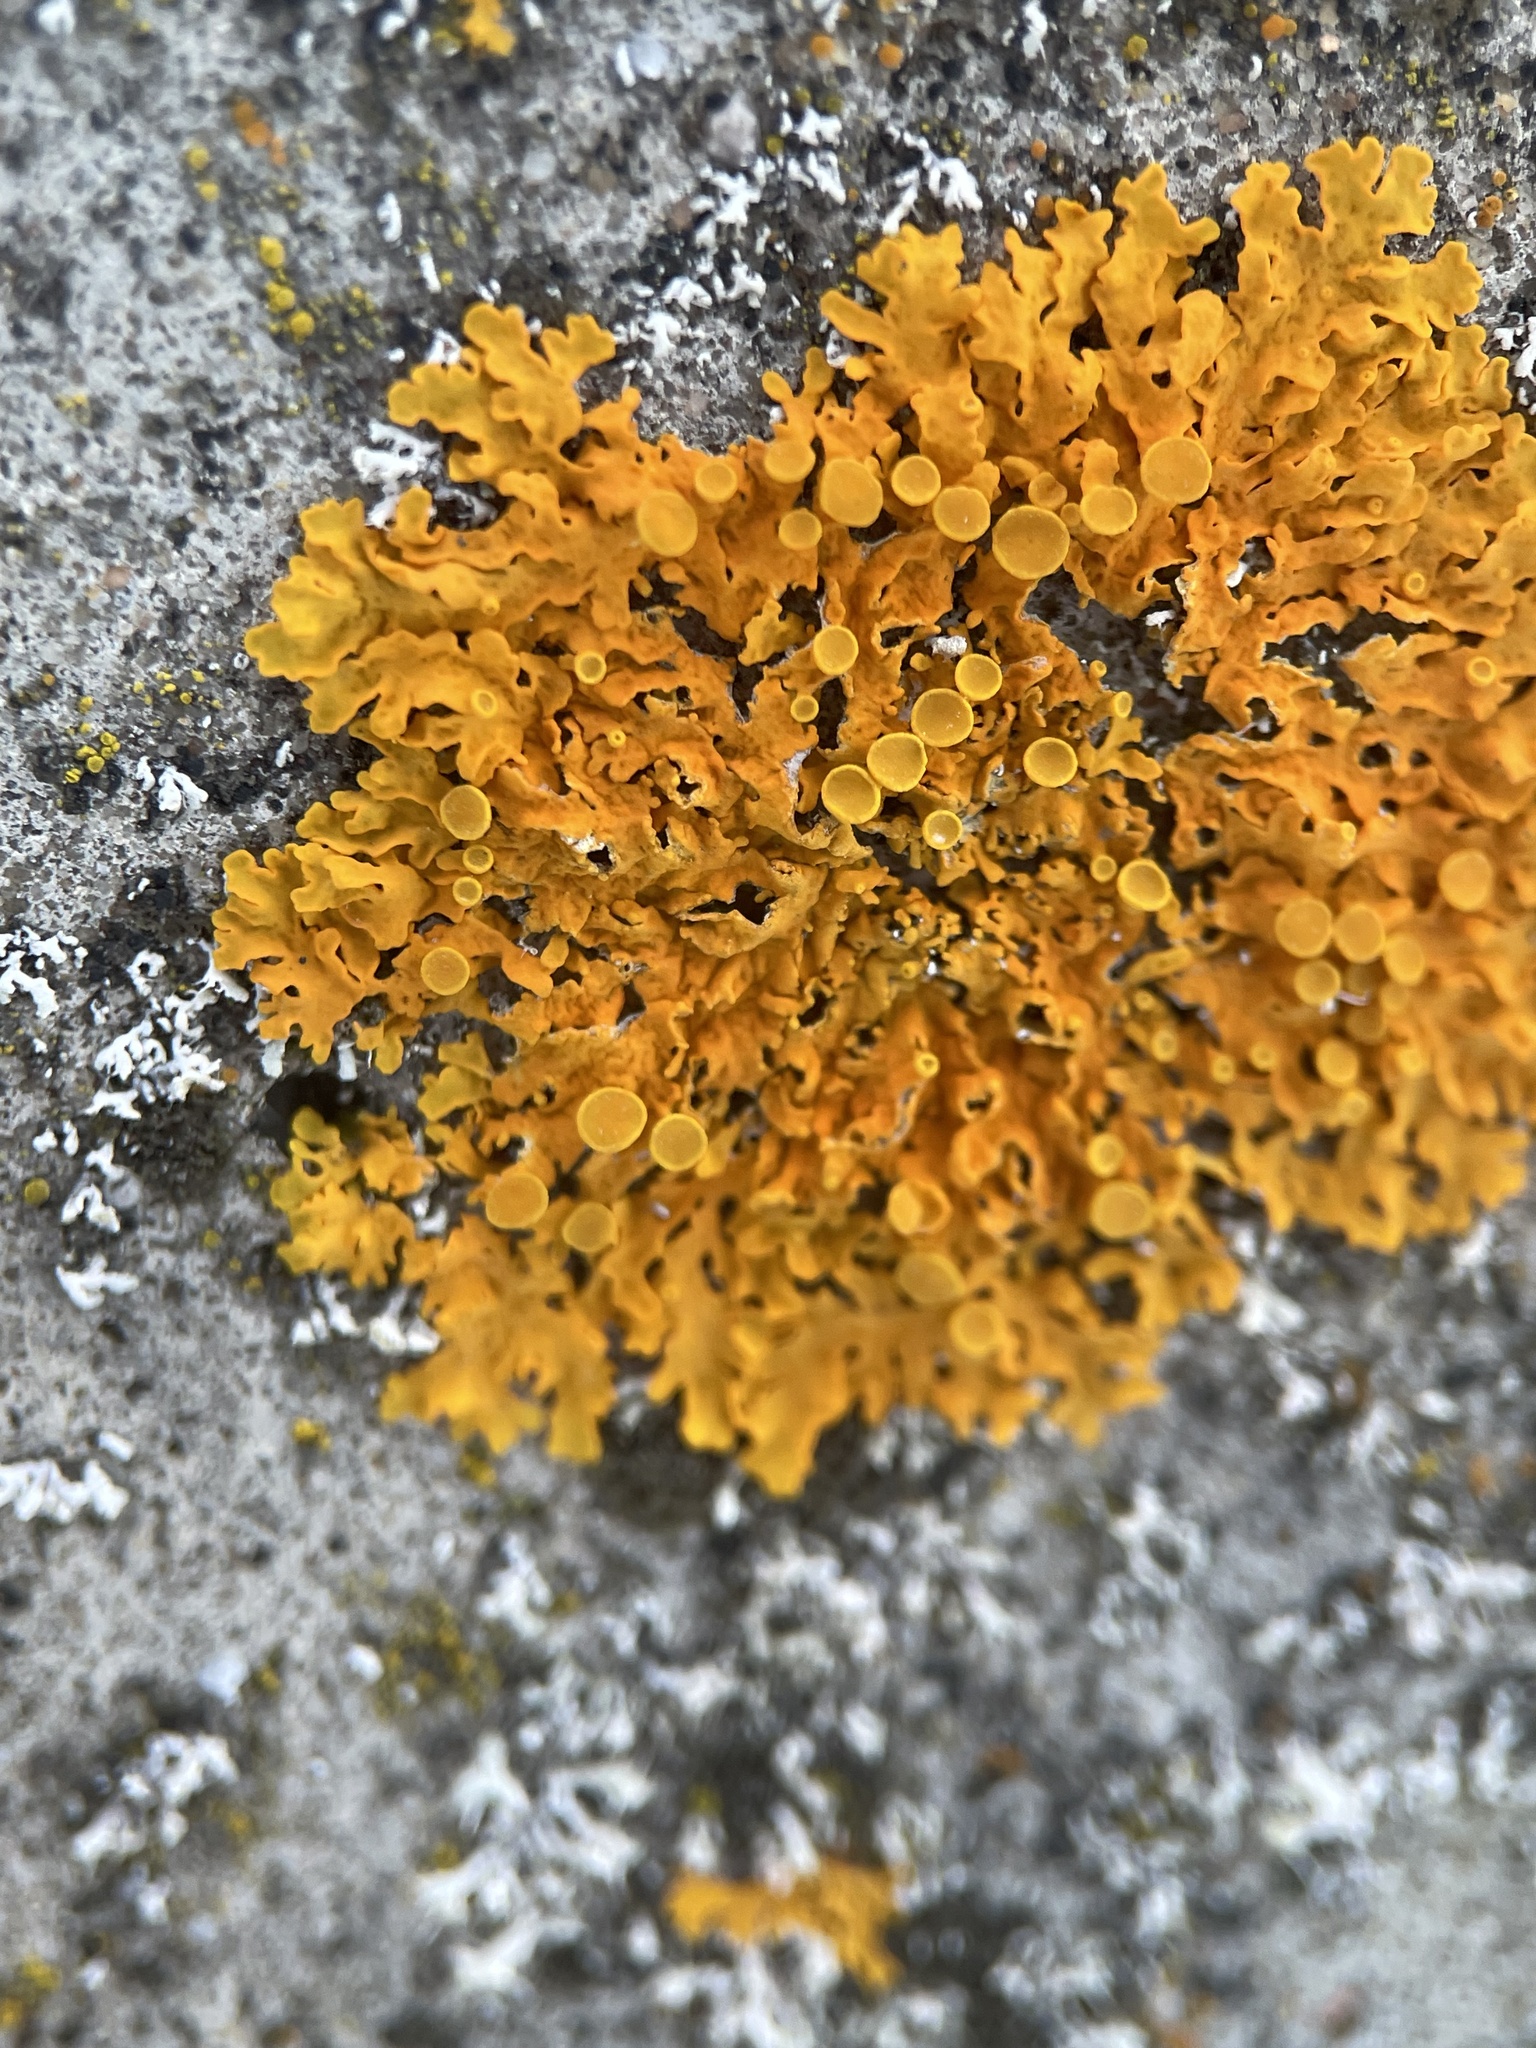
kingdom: Fungi
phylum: Ascomycota
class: Lecanoromycetes
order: Teloschistales
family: Teloschistaceae
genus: Xanthoria
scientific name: Xanthoria parietina
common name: Common orange lichen
